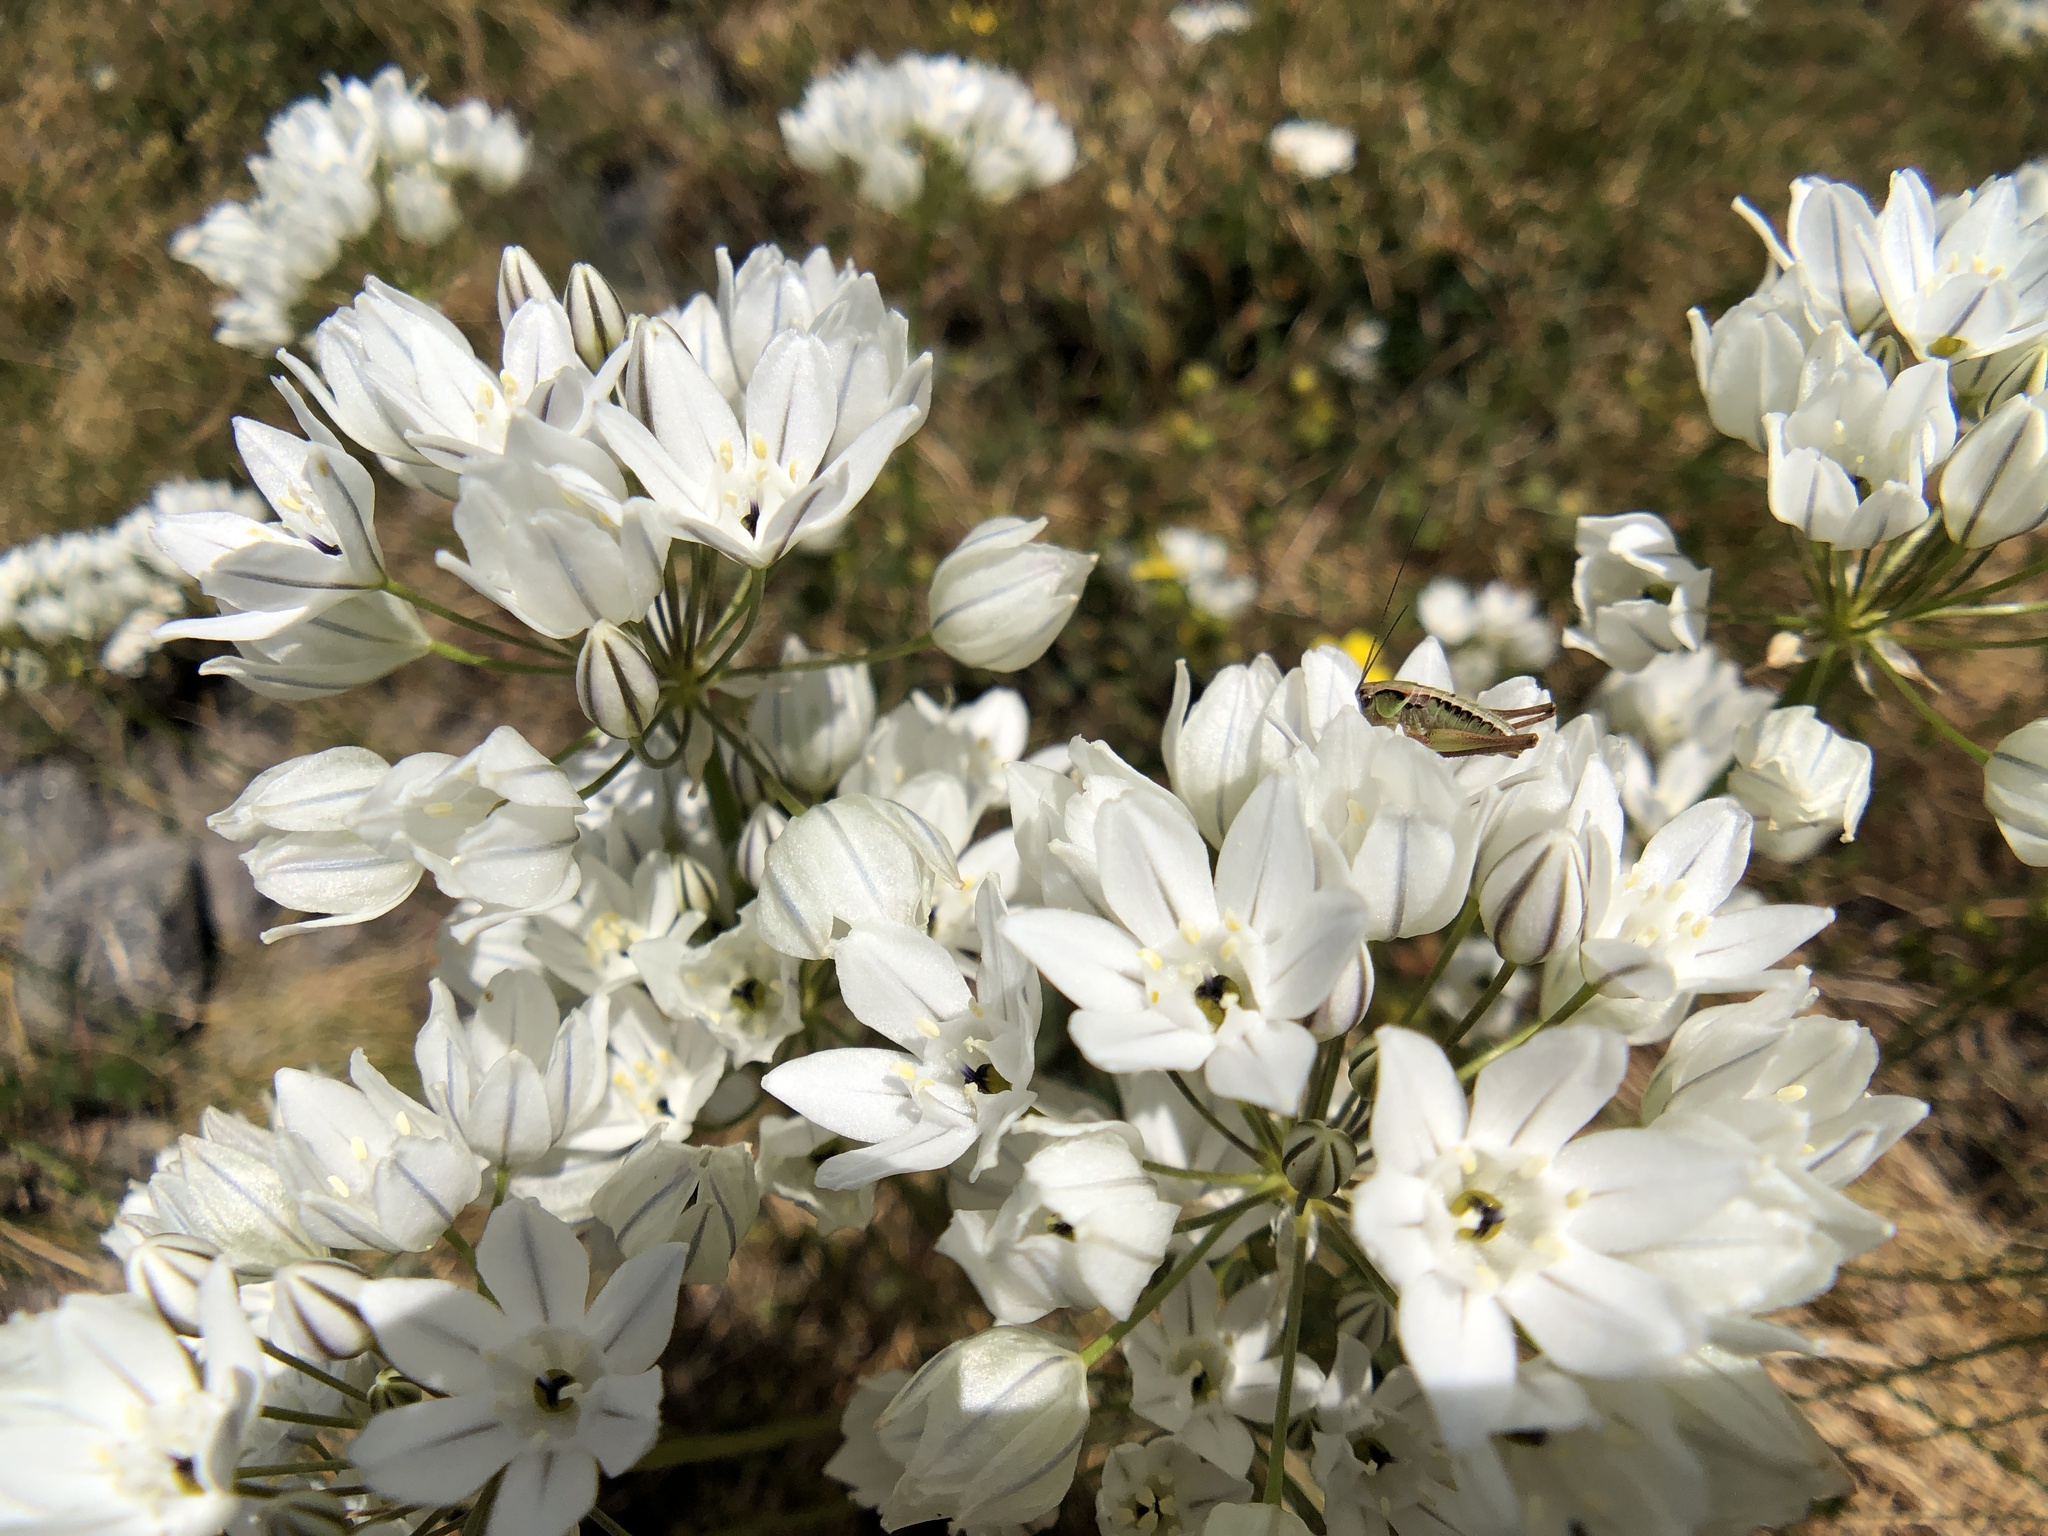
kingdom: Plantae
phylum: Tracheophyta
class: Liliopsida
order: Asparagales
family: Asparagaceae
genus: Triteleia
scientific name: Triteleia hyacinthina
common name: White brodiaea
